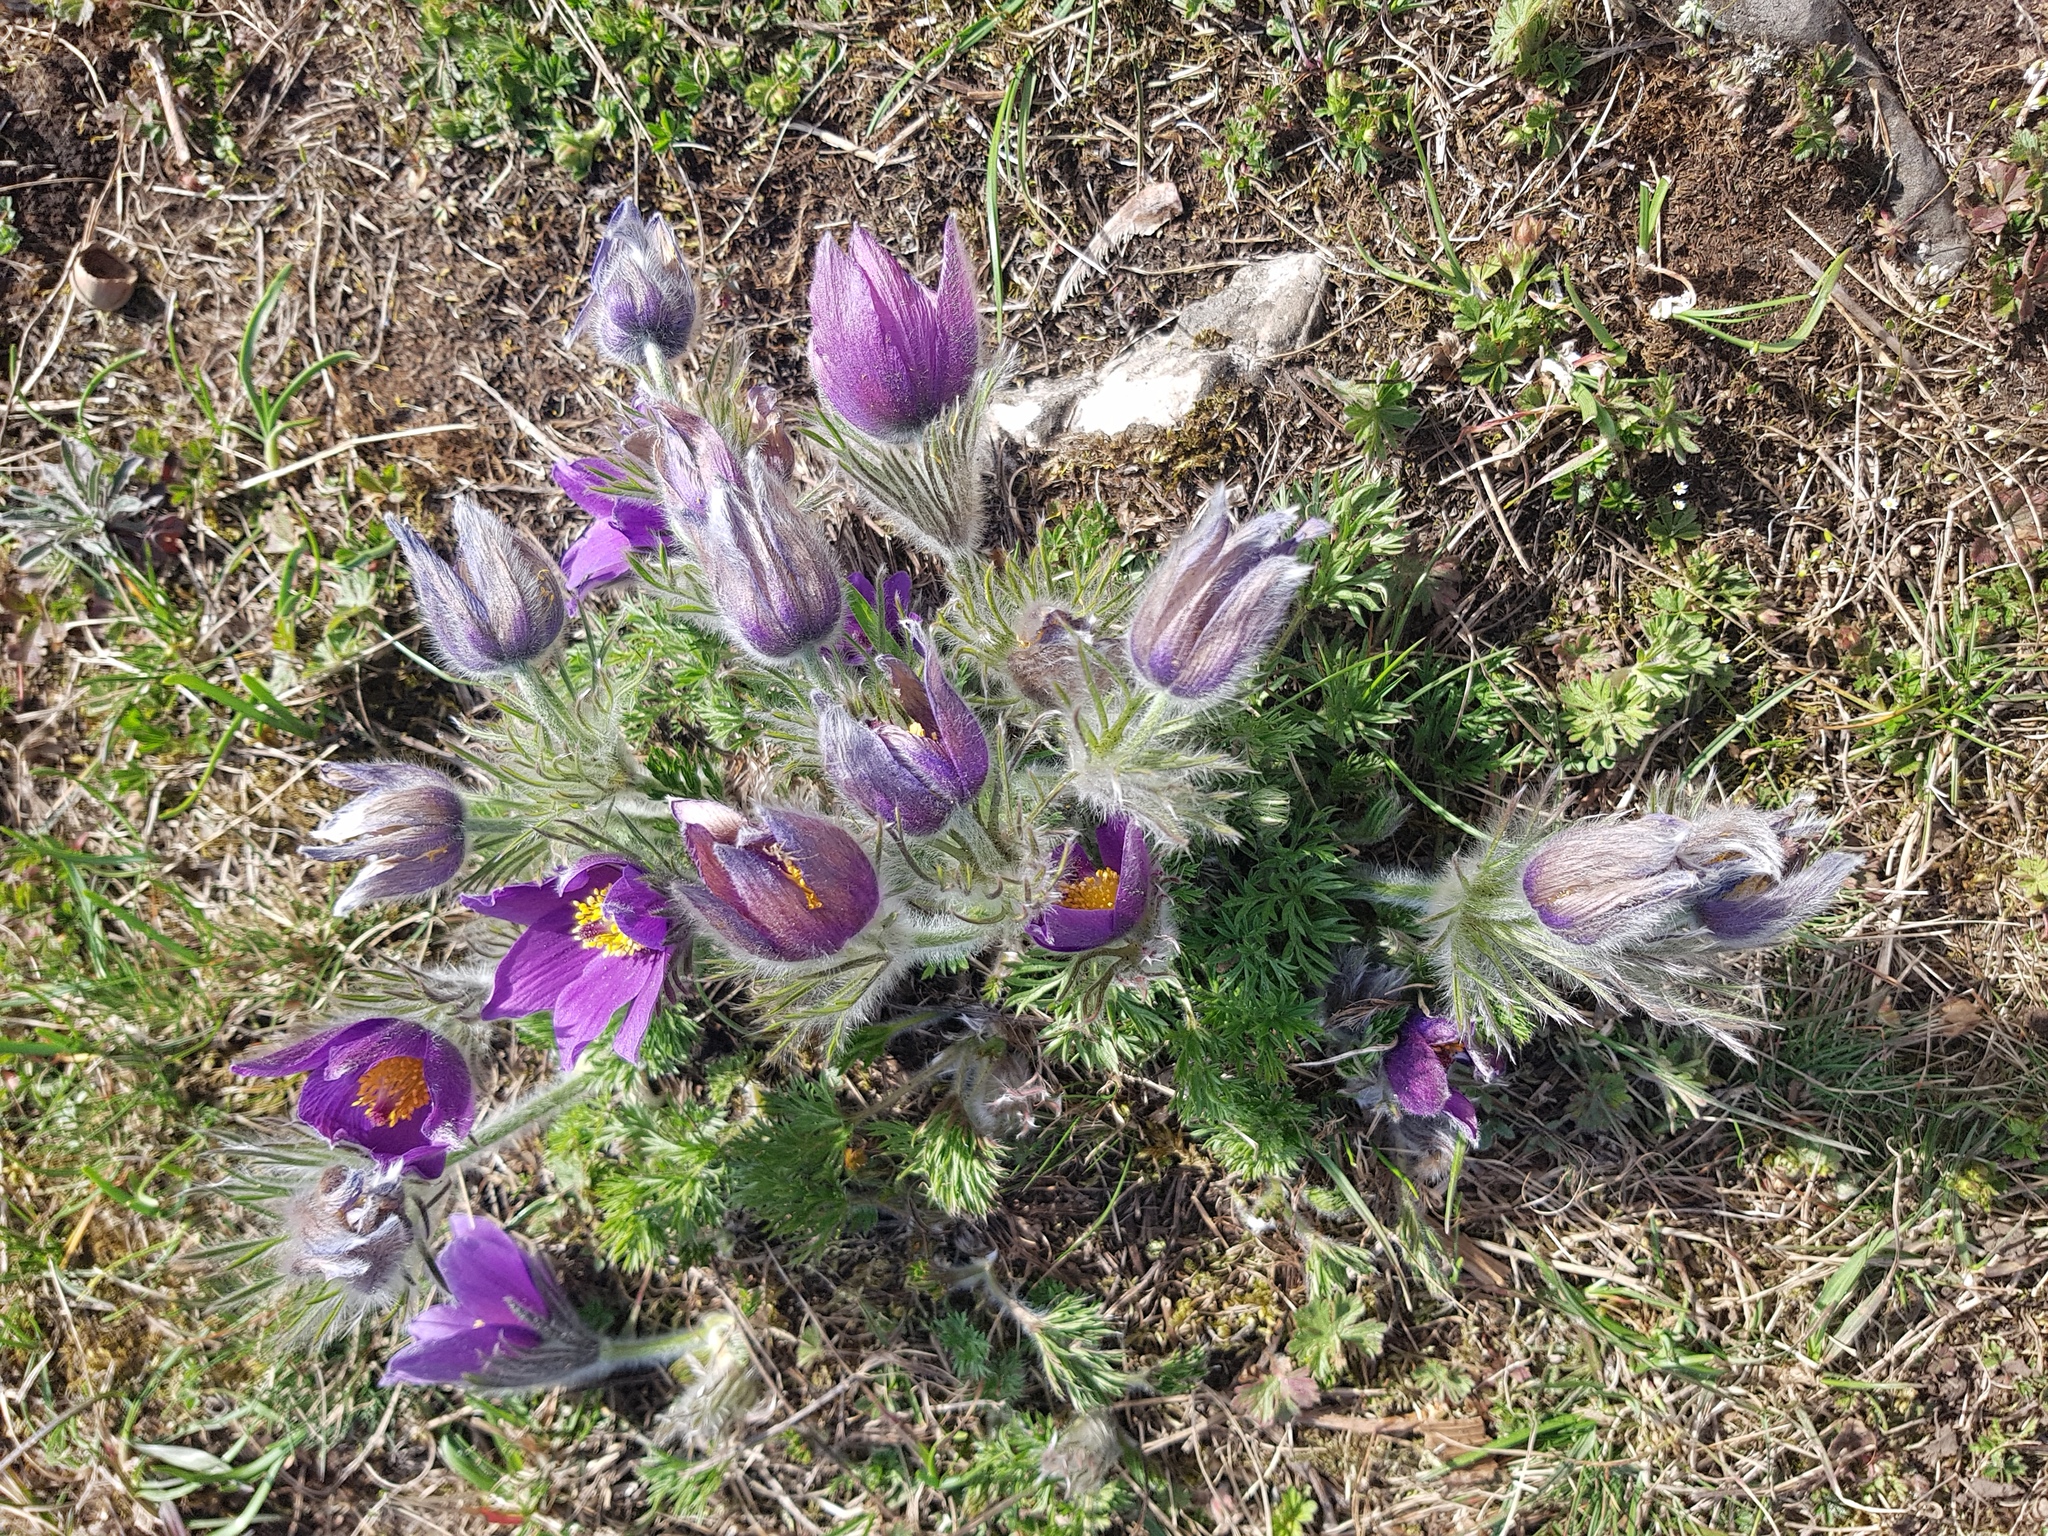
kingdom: Plantae
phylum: Tracheophyta
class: Magnoliopsida
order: Ranunculales
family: Ranunculaceae
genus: Pulsatilla
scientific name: Pulsatilla vulgaris
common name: Pasqueflower
